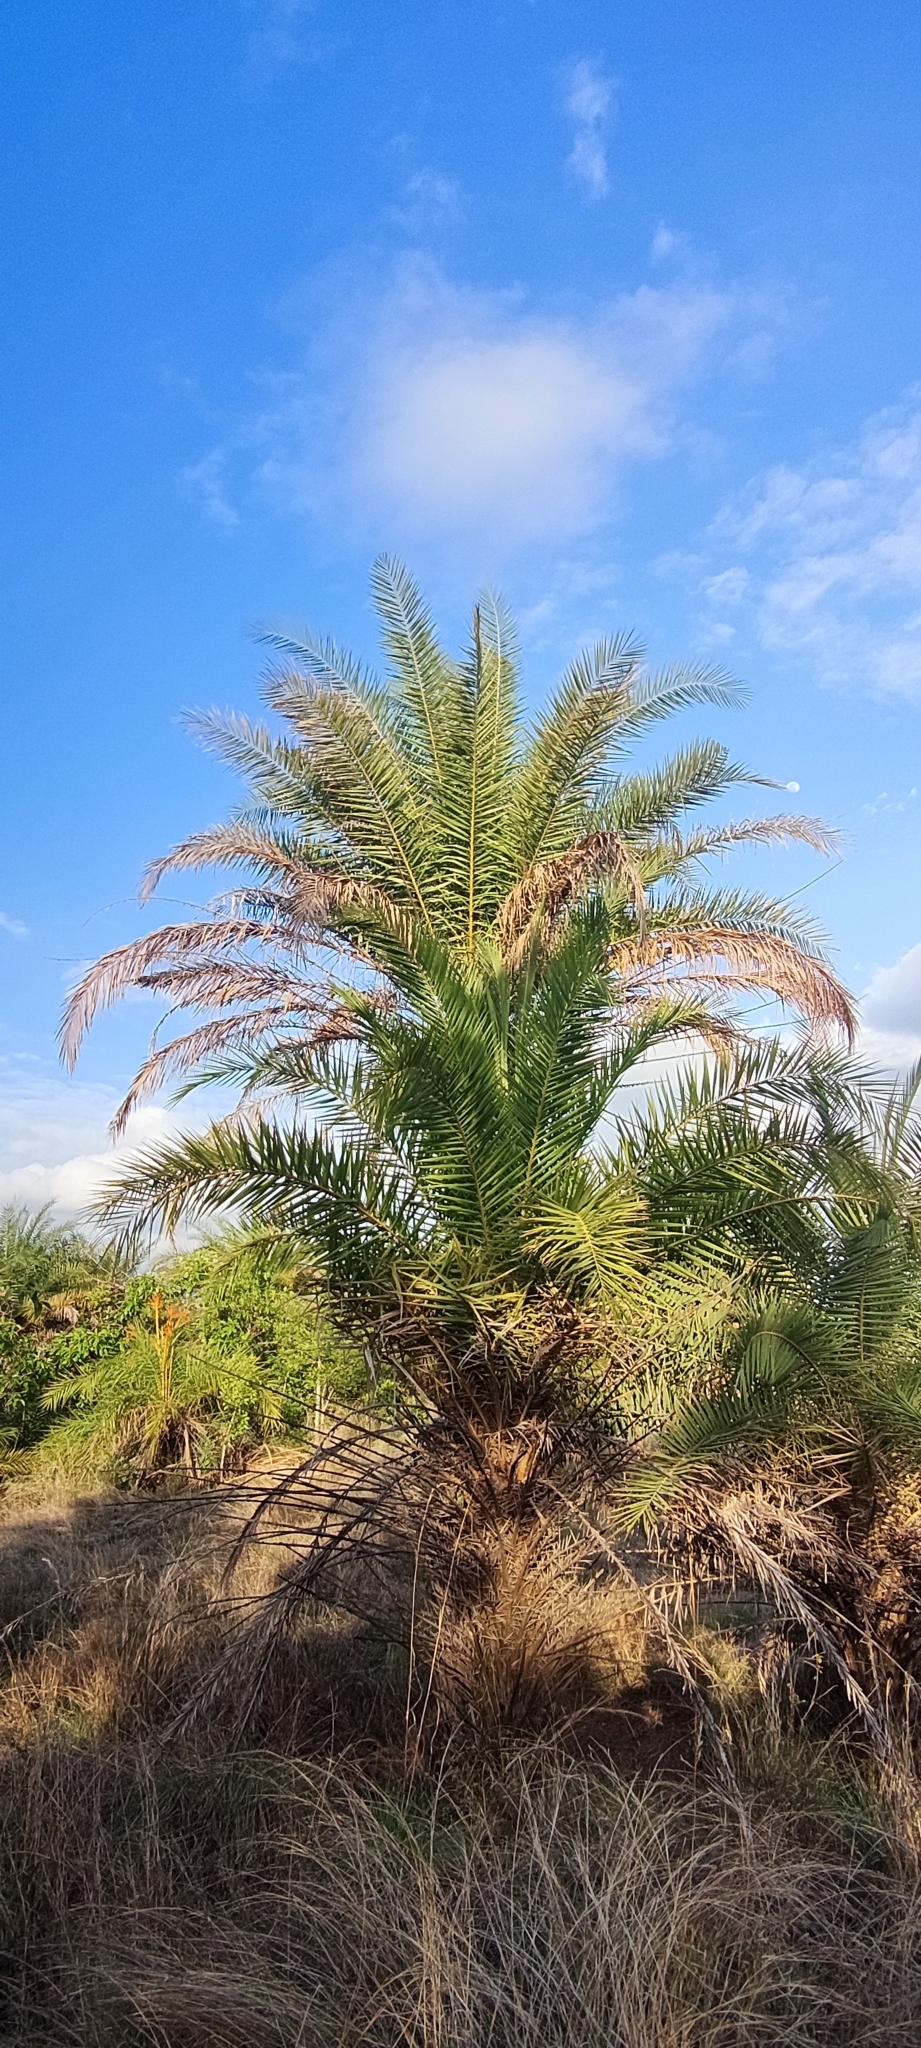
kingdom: Plantae
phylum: Tracheophyta
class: Liliopsida
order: Arecales
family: Arecaceae
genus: Phoenix
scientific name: Phoenix sylvestris
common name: Wild date palm
